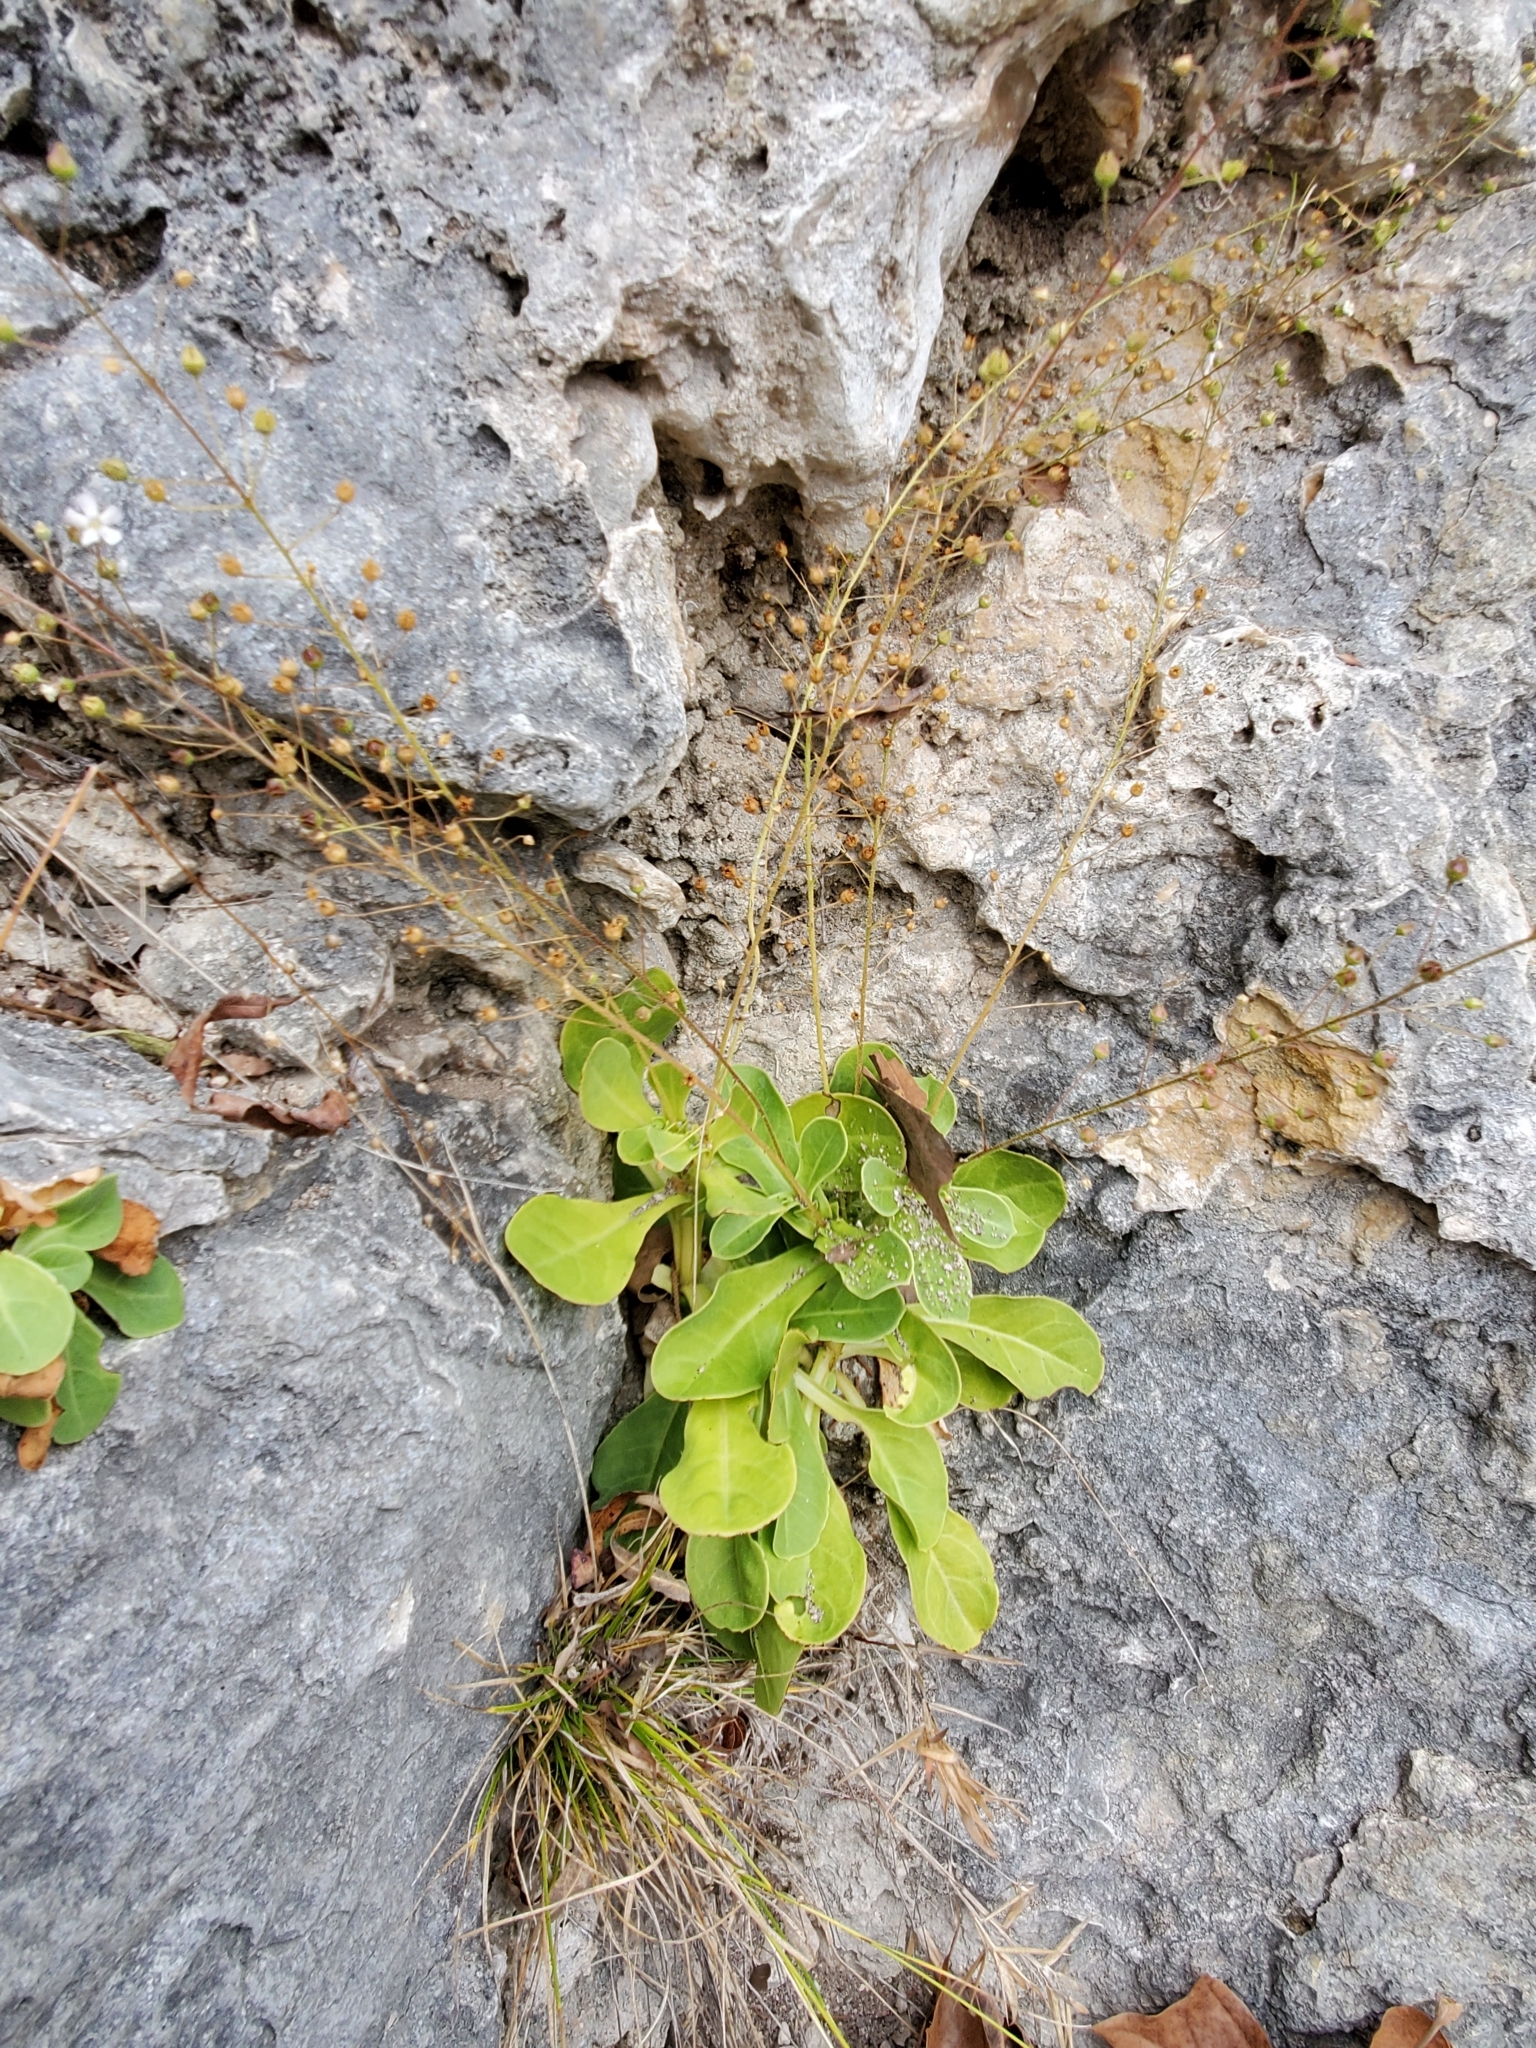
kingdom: Plantae
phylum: Tracheophyta
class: Magnoliopsida
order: Ericales
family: Primulaceae
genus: Samolus
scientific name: Samolus ebracteatus
